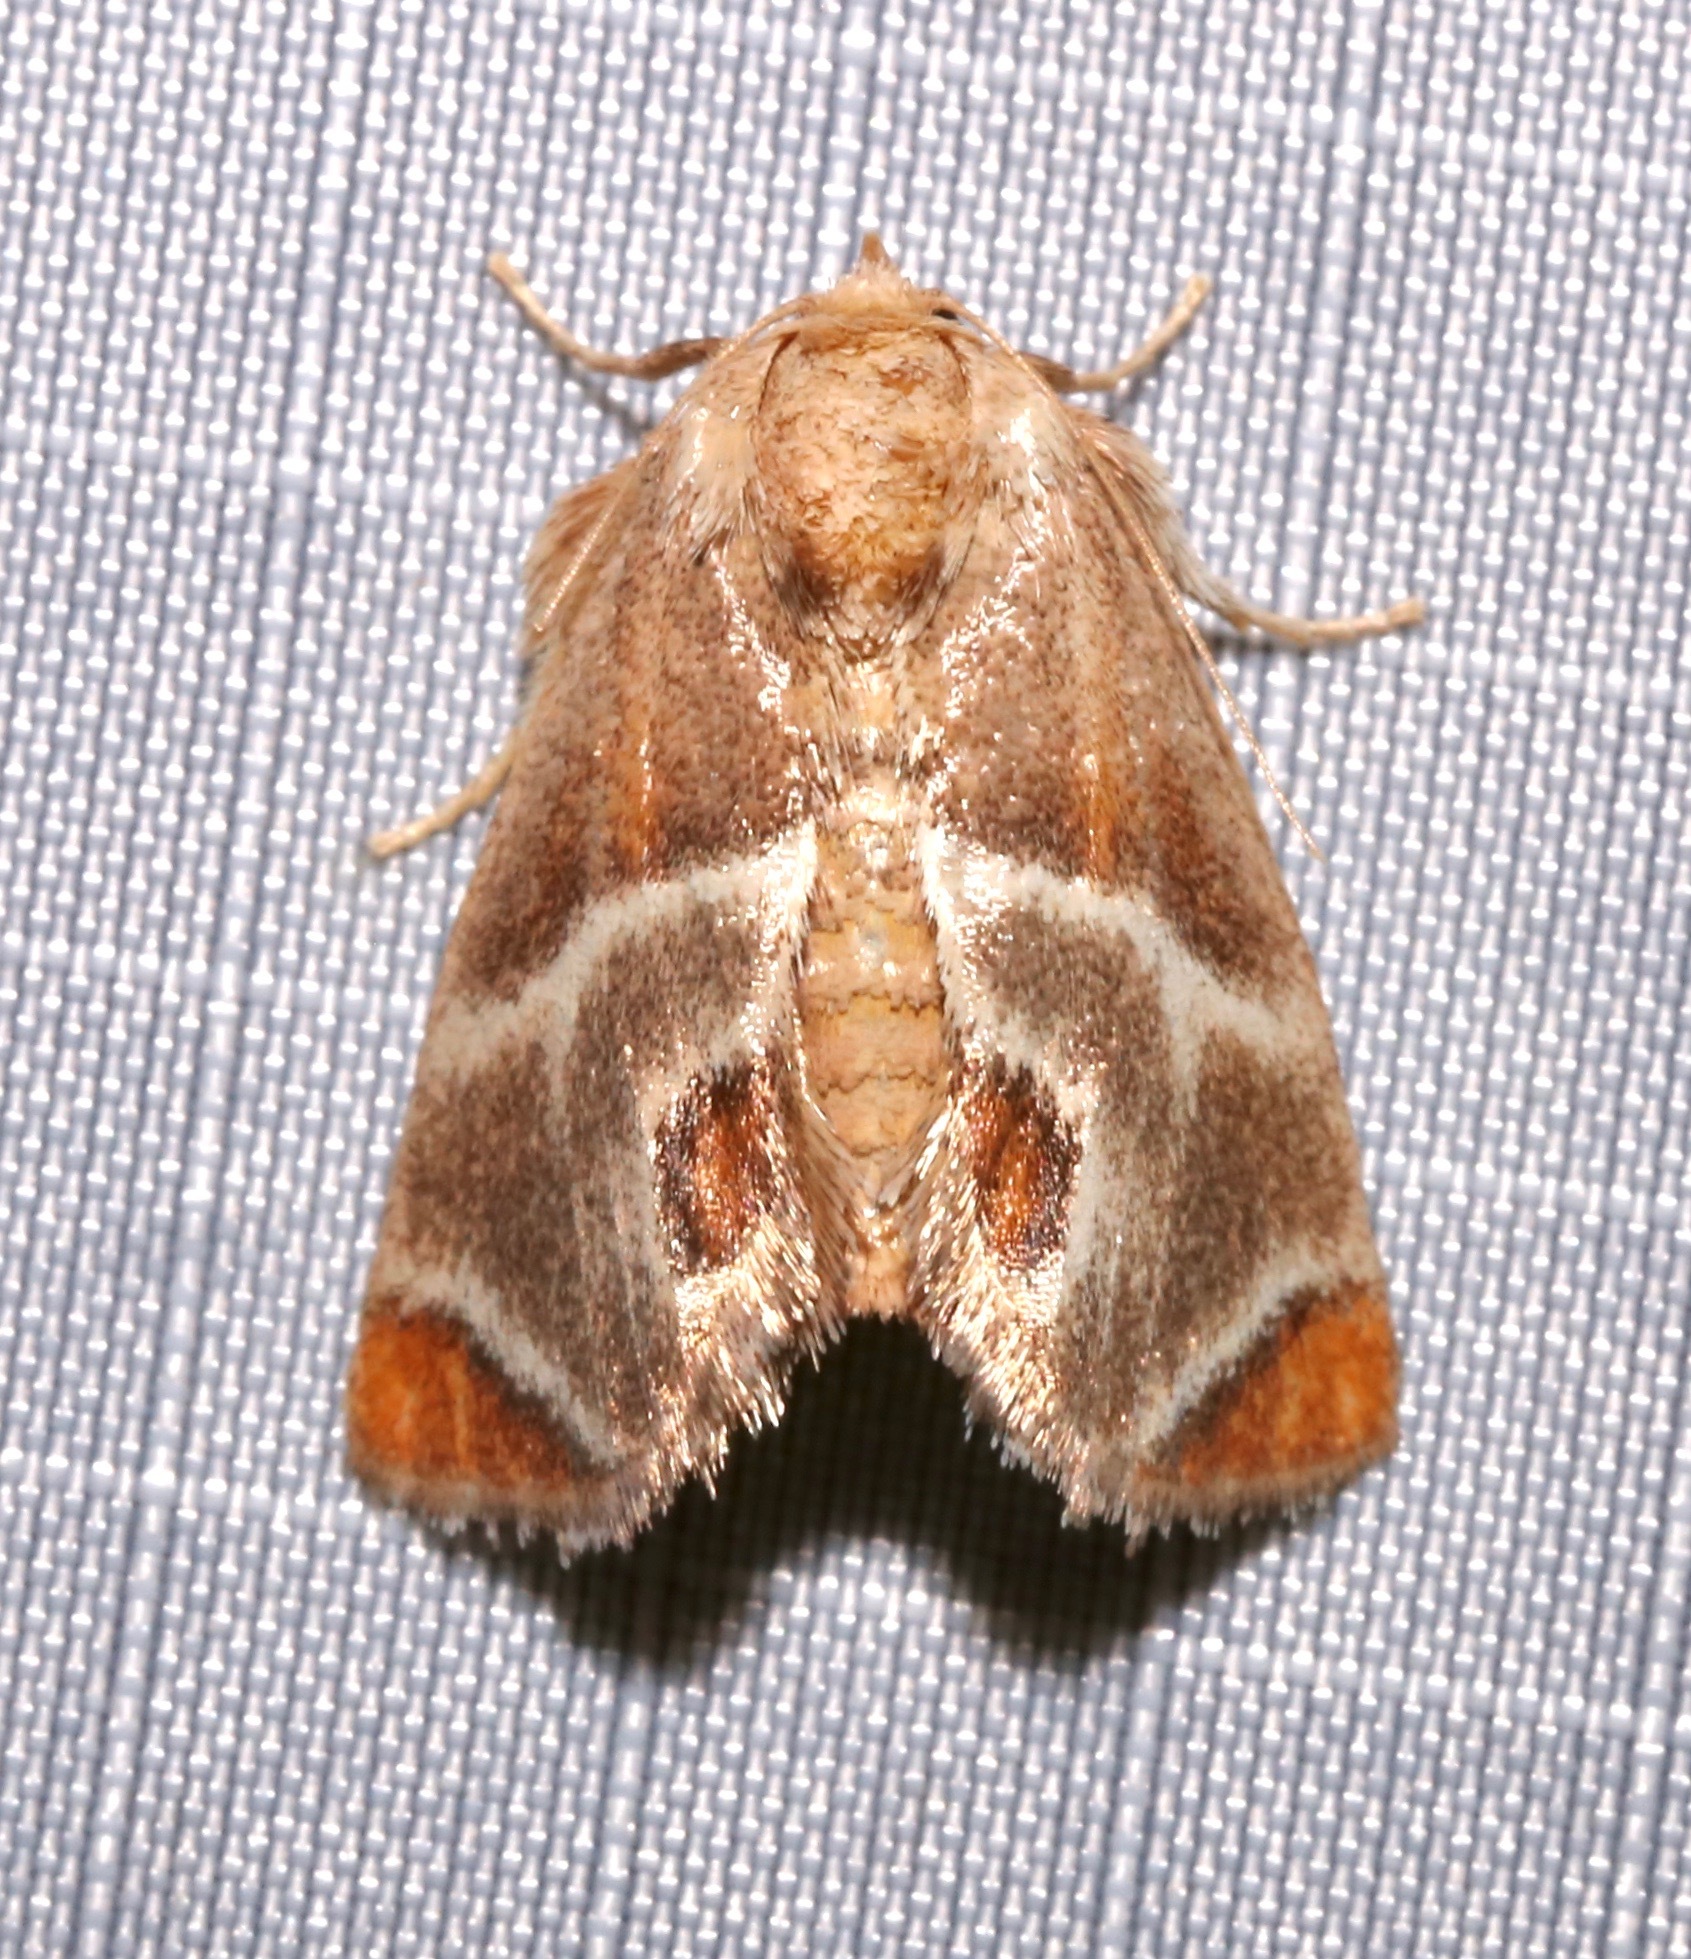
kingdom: Animalia
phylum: Arthropoda
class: Insecta
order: Lepidoptera
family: Limacodidae
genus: Apoda
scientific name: Apoda biguttata
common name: Shagreened slug moth
